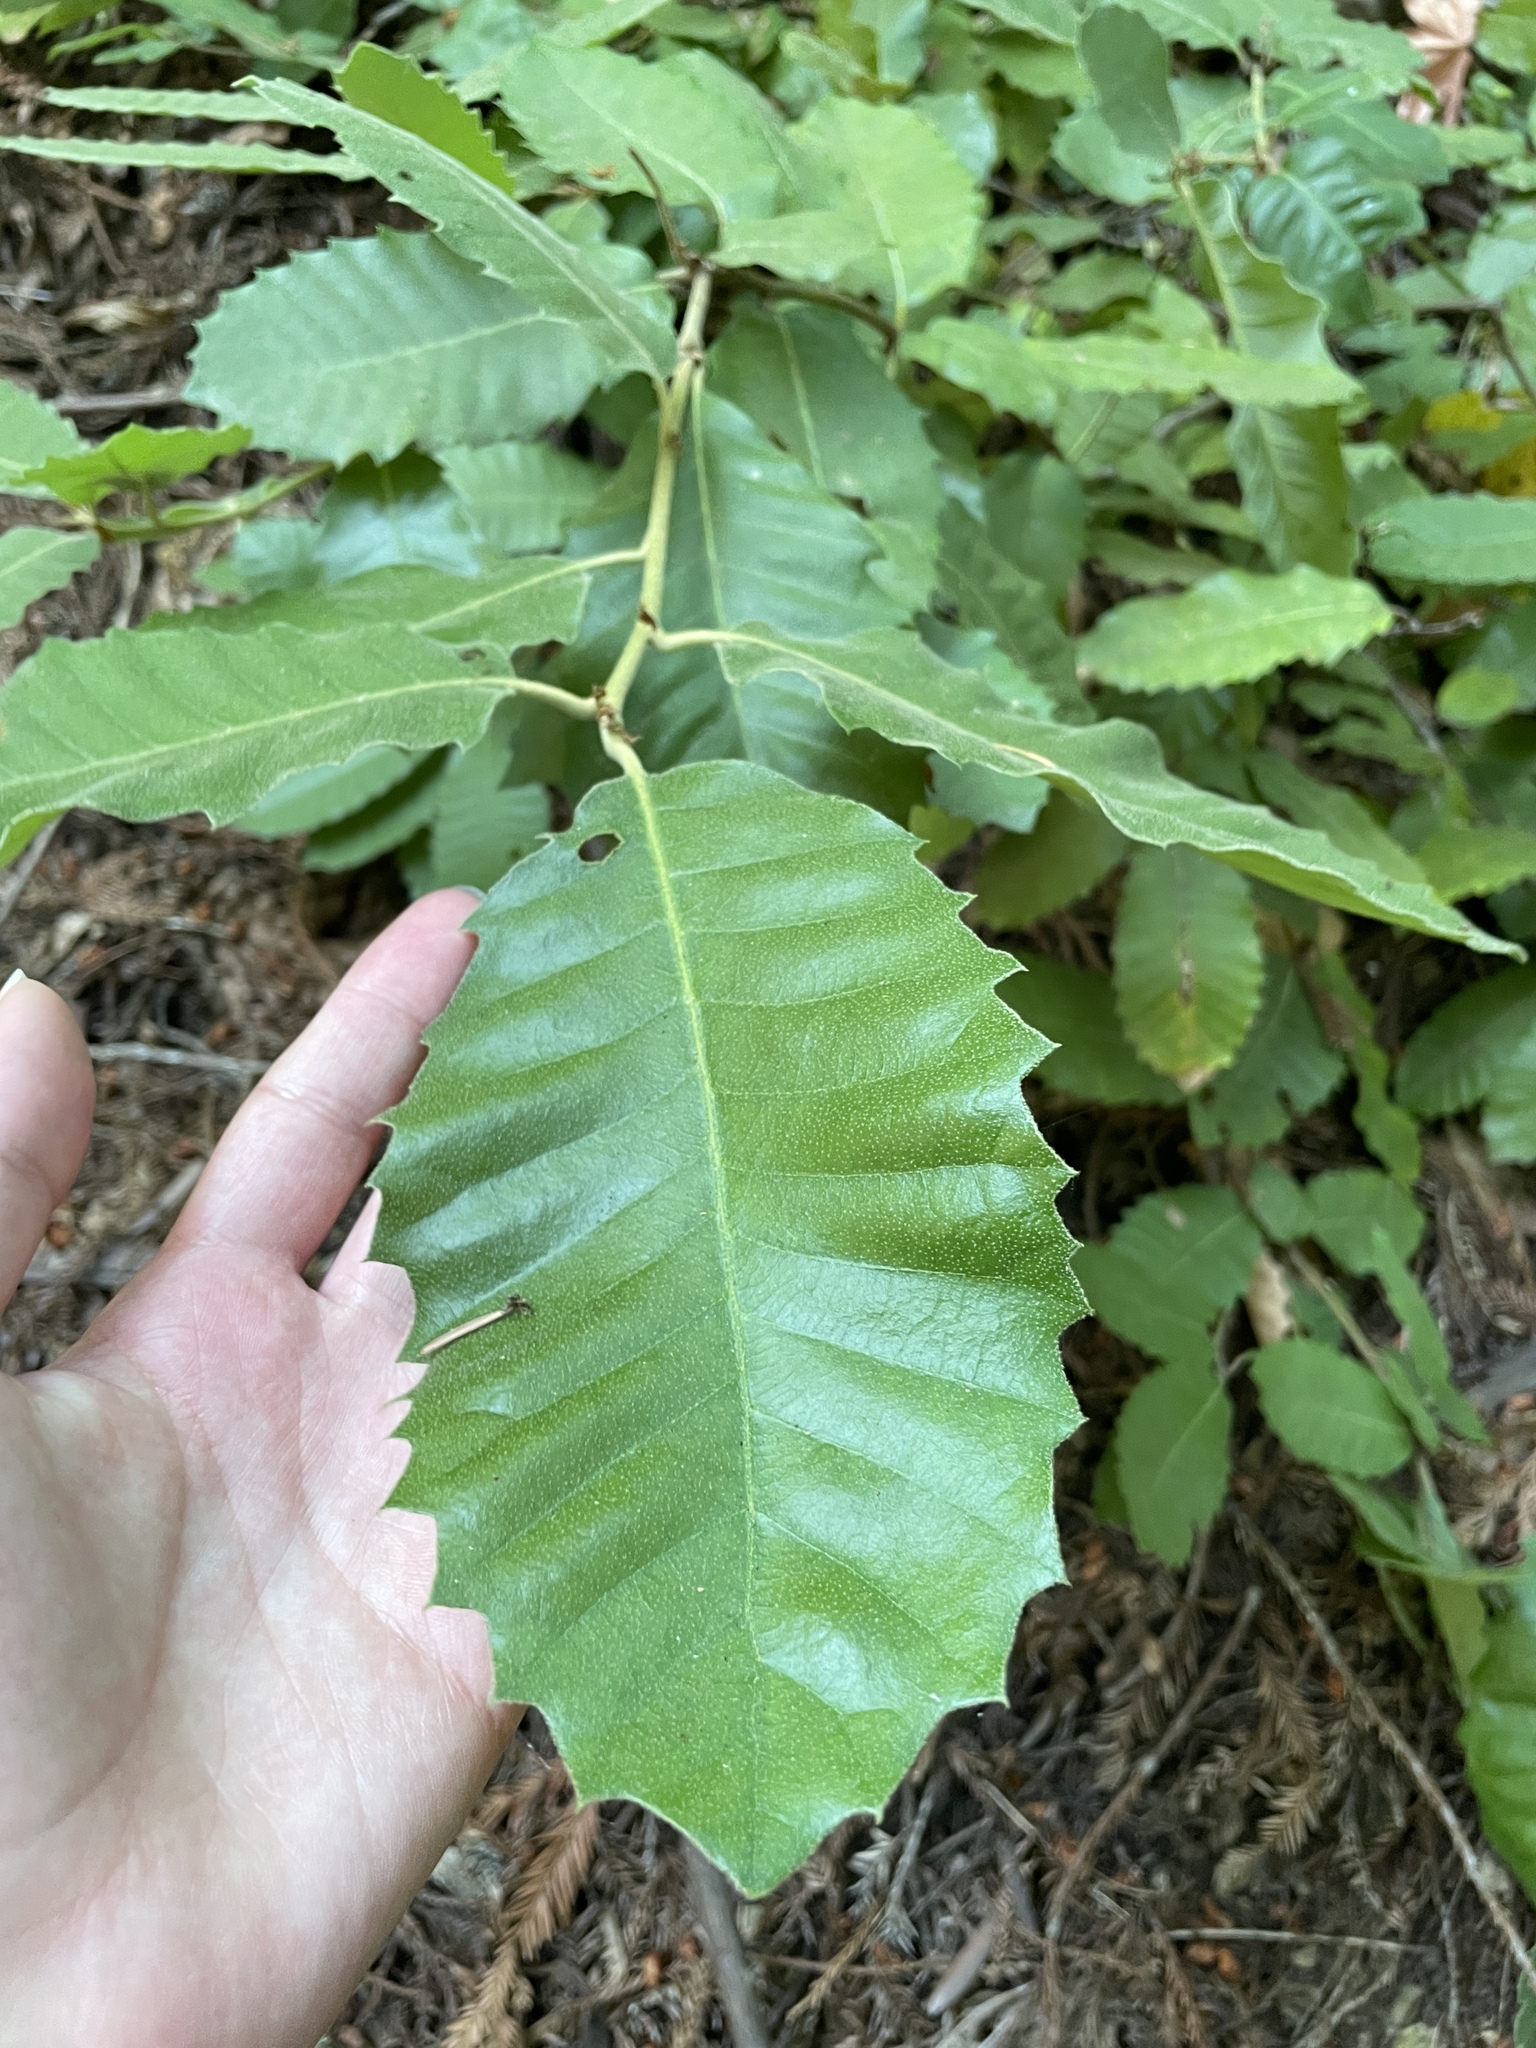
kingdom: Plantae
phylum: Tracheophyta
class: Magnoliopsida
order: Fagales
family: Fagaceae
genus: Notholithocarpus
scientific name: Notholithocarpus densiflorus
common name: Tan bark oak
